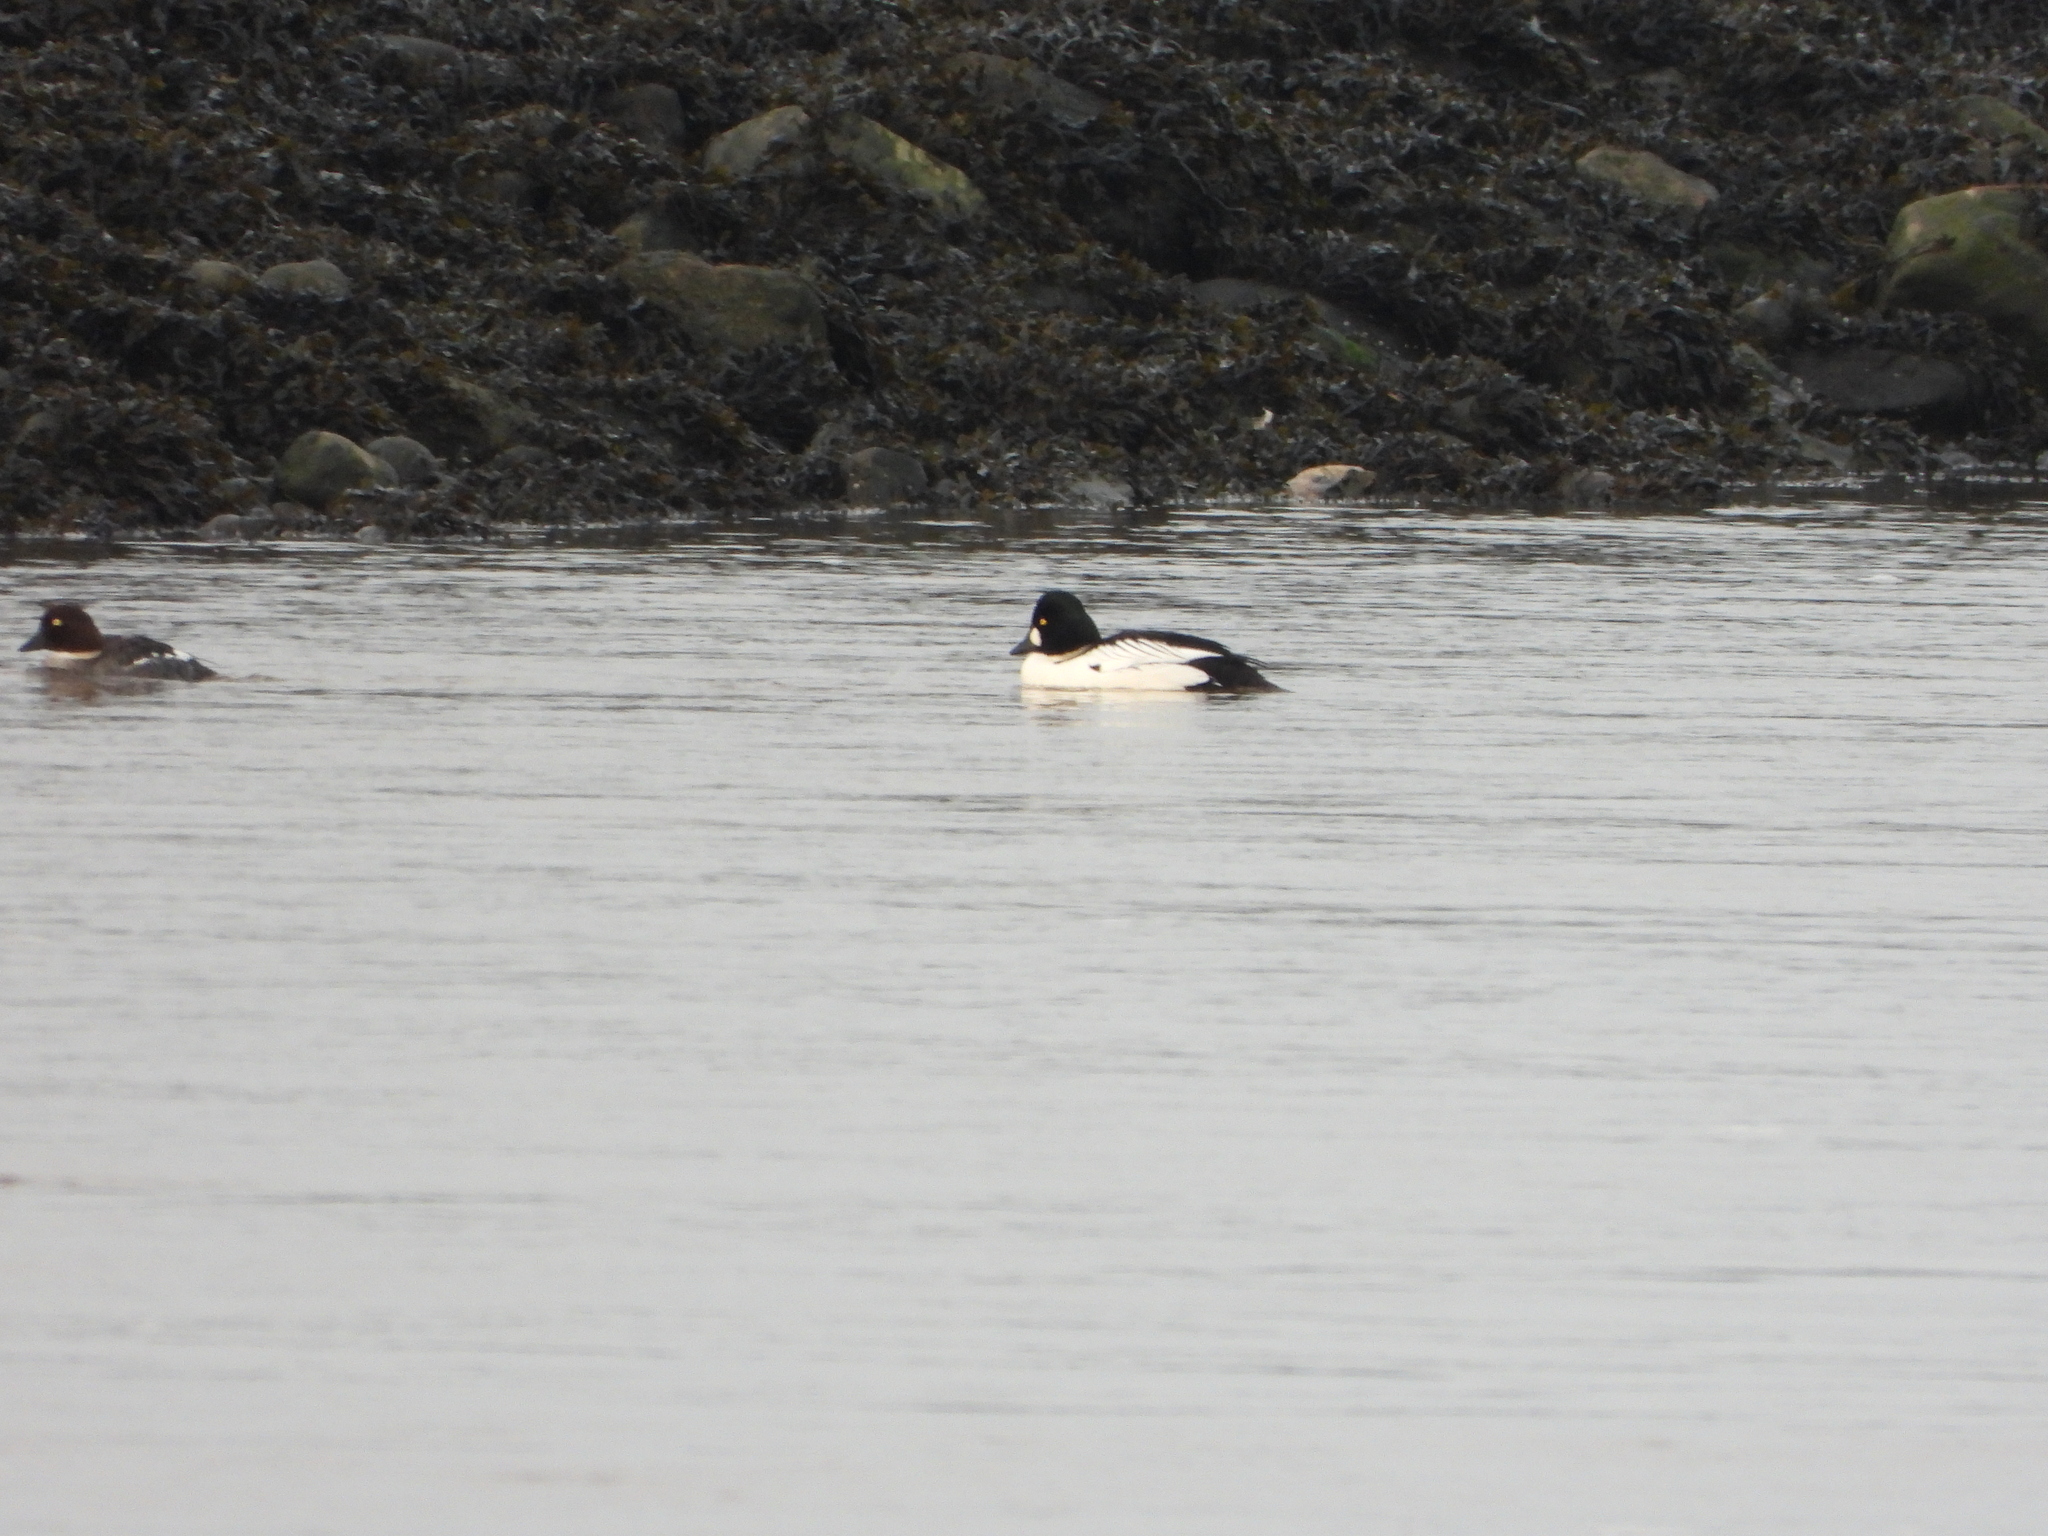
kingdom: Animalia
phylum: Chordata
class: Aves
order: Anseriformes
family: Anatidae
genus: Bucephala
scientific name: Bucephala clangula
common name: Common goldeneye
